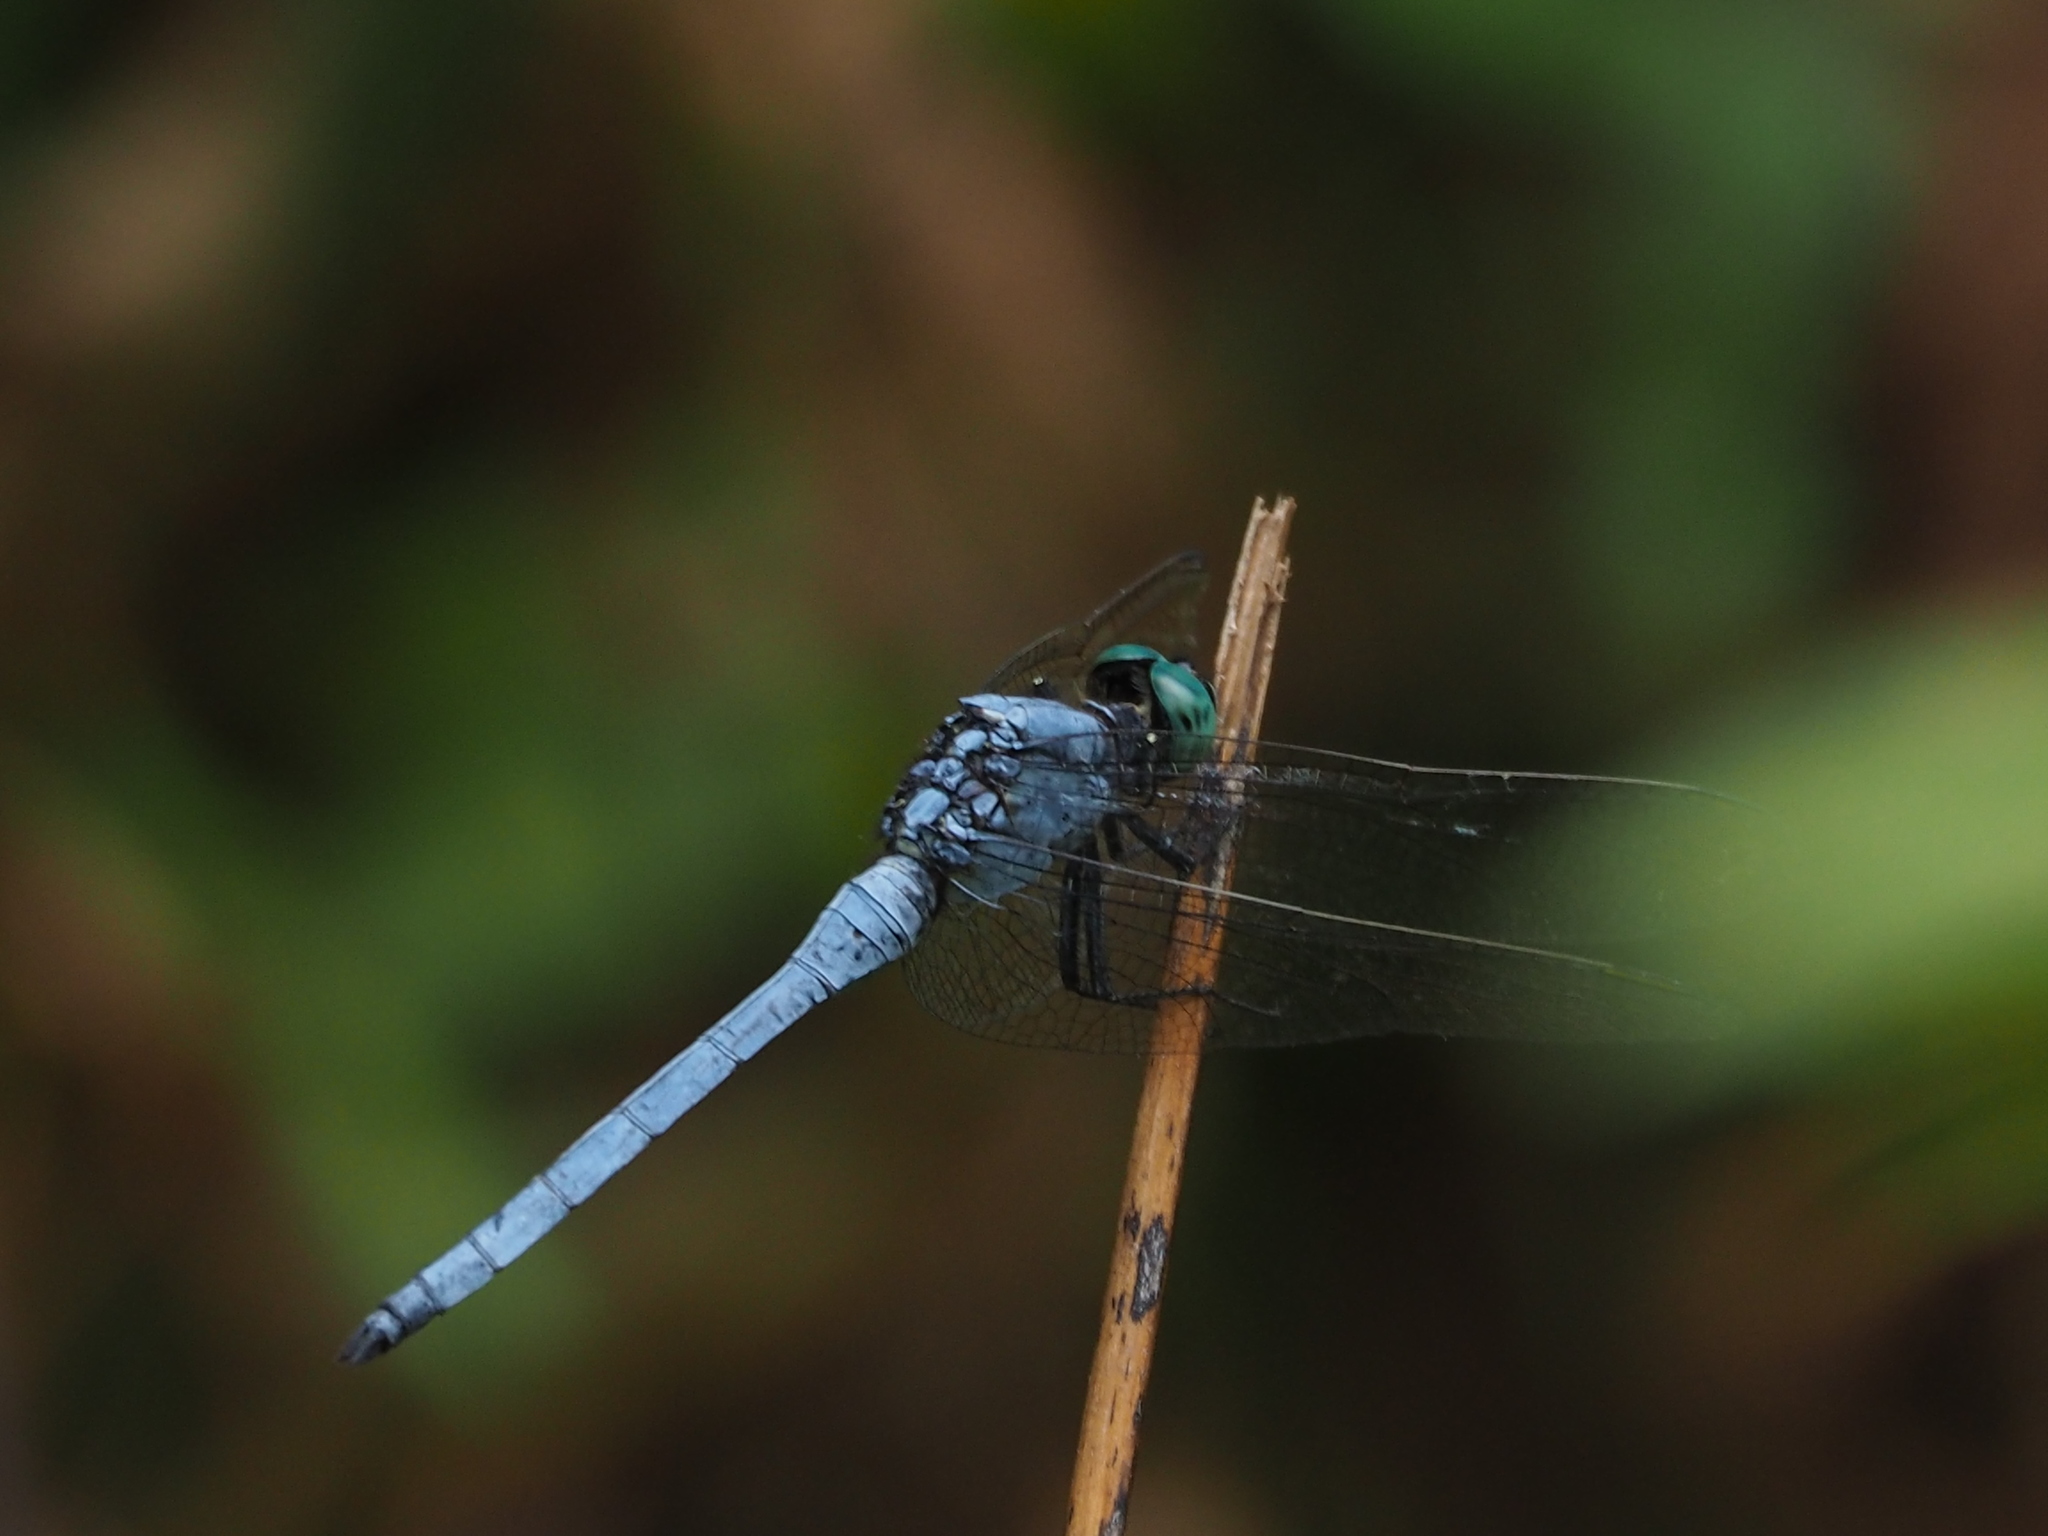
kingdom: Animalia
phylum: Arthropoda
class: Insecta
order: Odonata
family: Libellulidae
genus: Orthetrum
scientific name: Orthetrum luzonicum
